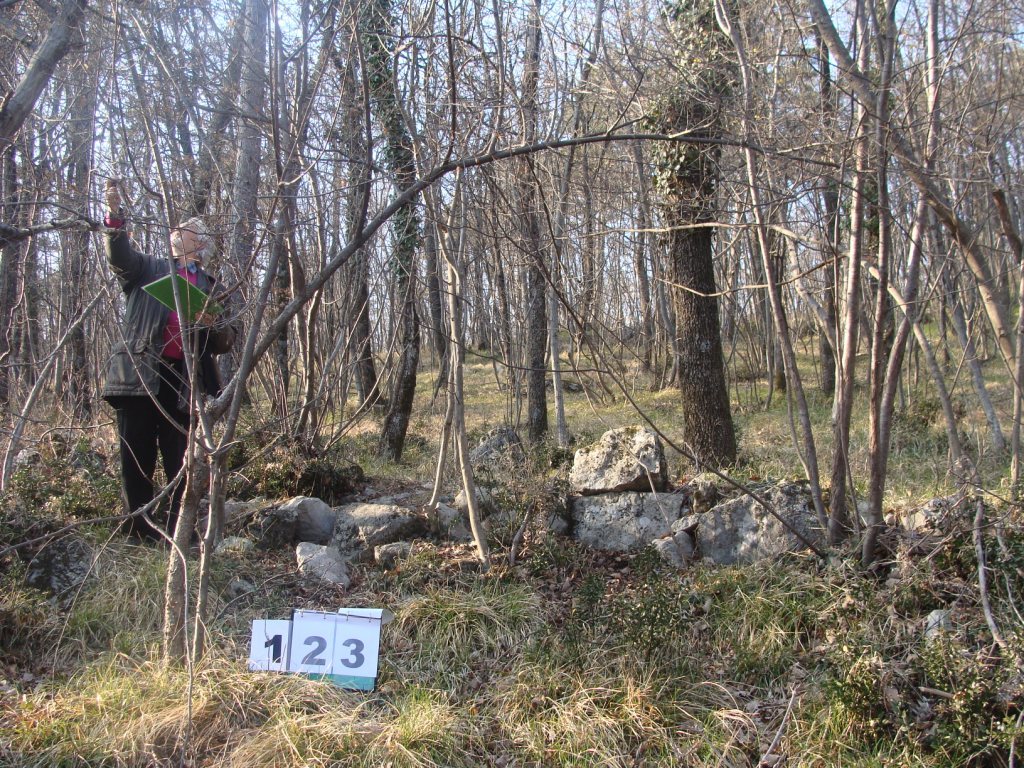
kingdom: Plantae
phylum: Tracheophyta
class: Magnoliopsida
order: Cornales
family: Cornaceae
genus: Cornus
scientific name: Cornus mas
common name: Cornelian-cherry
